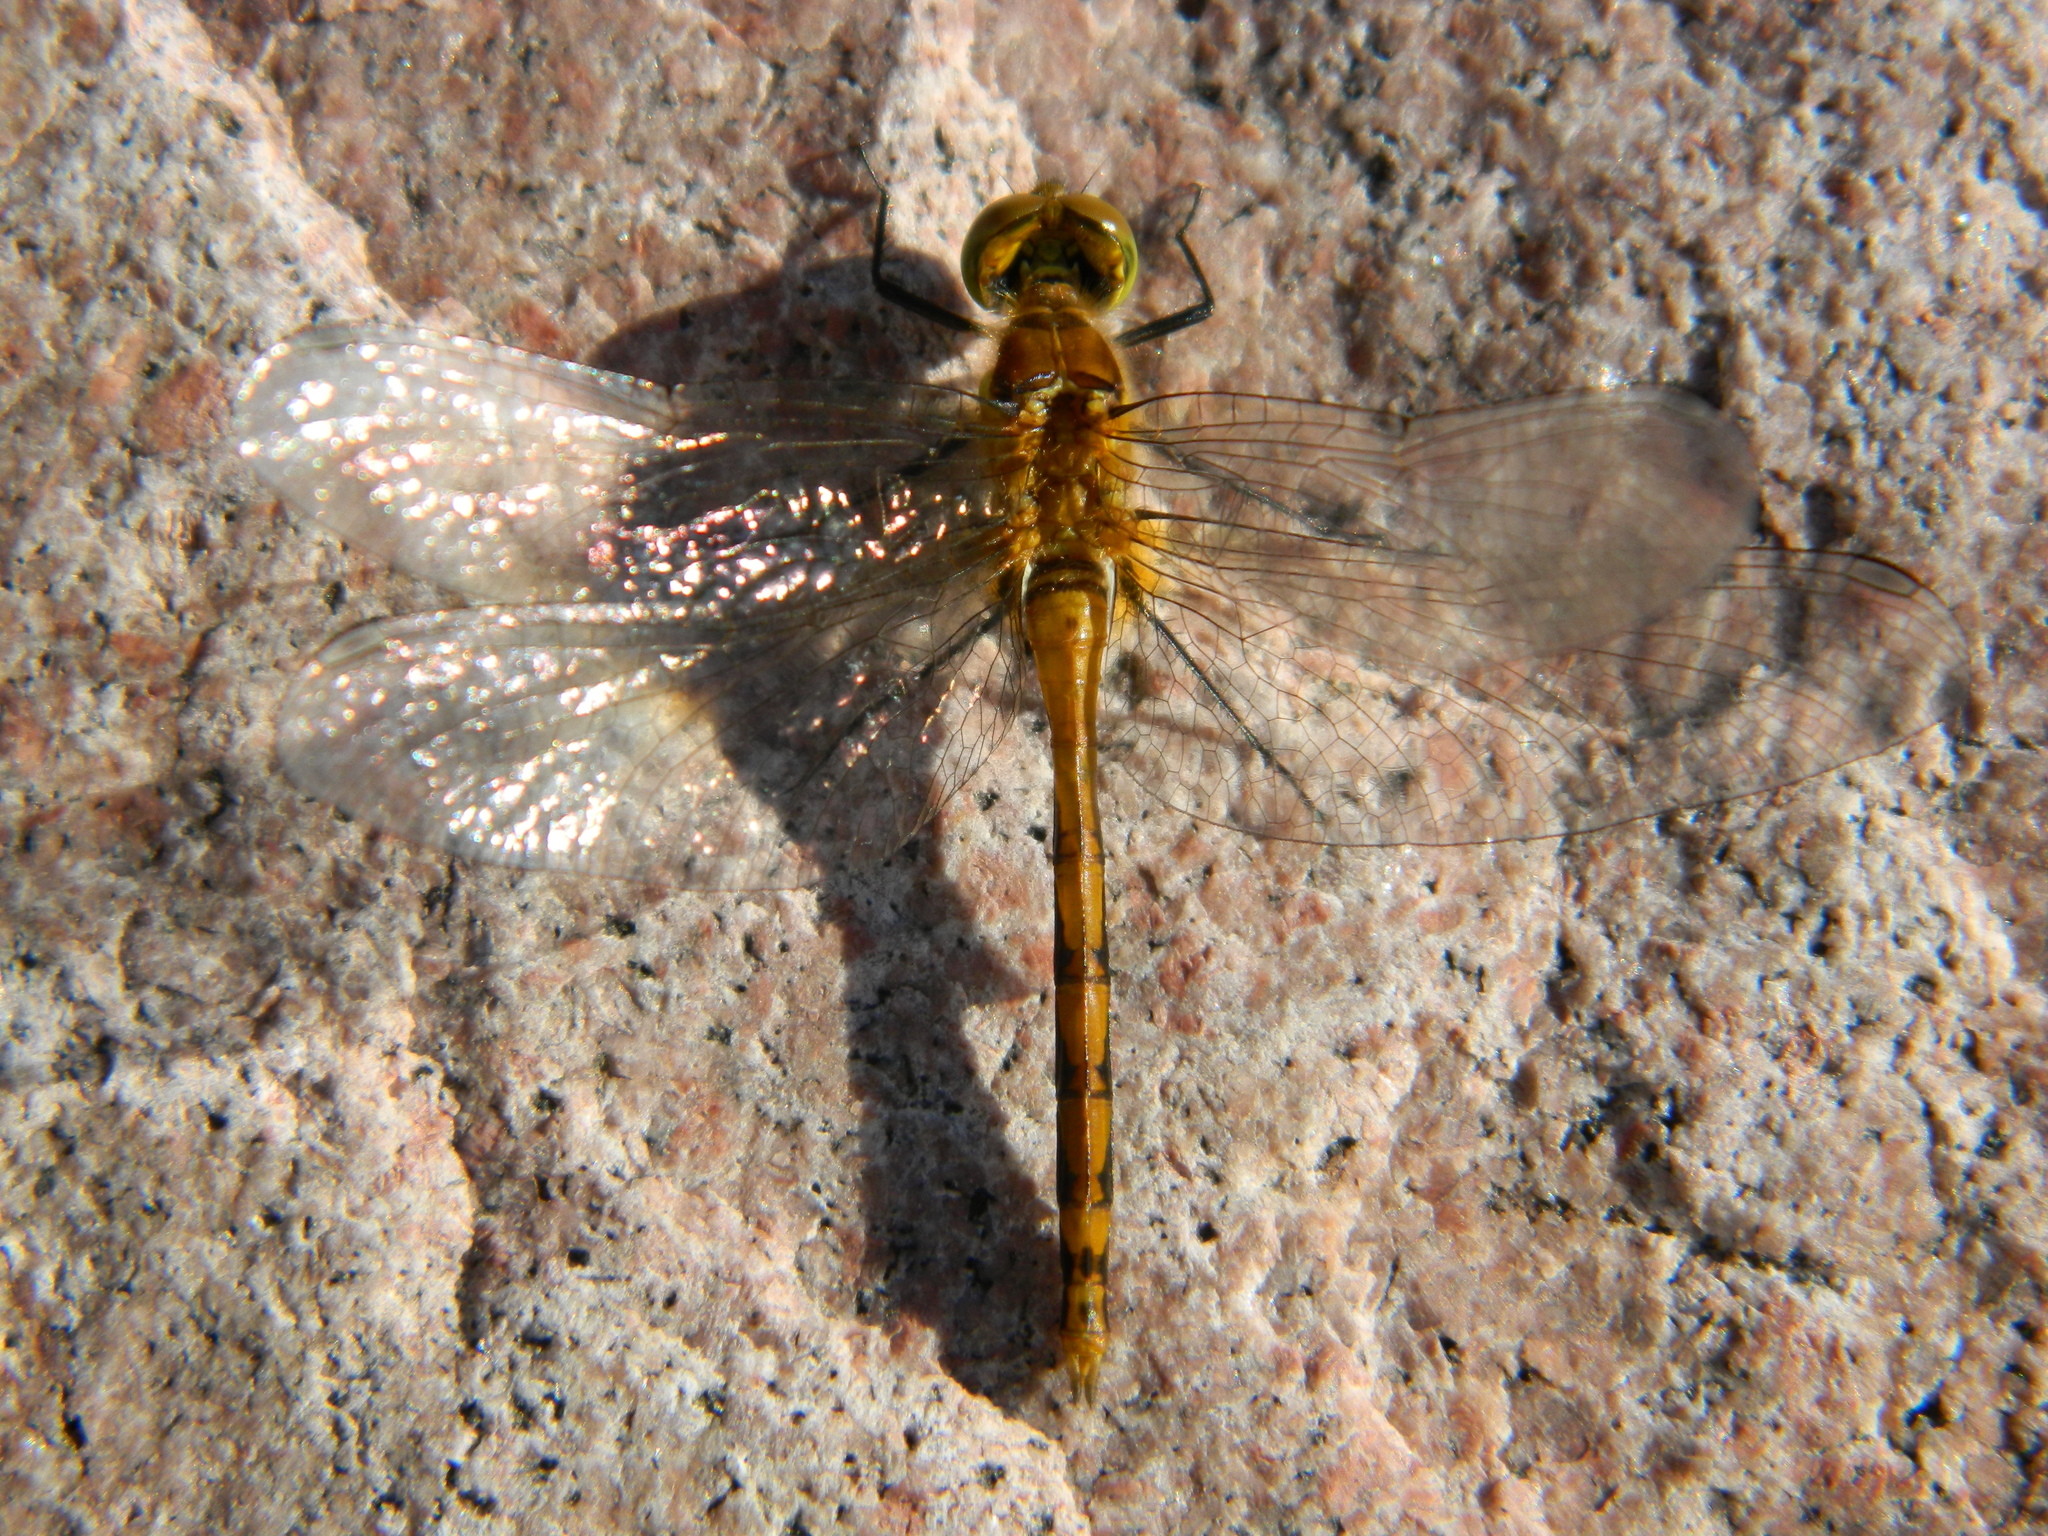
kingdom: Animalia
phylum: Arthropoda
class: Insecta
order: Odonata
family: Libellulidae
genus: Sympetrum
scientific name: Sympetrum obtrusum
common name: White-faced meadowhawk
